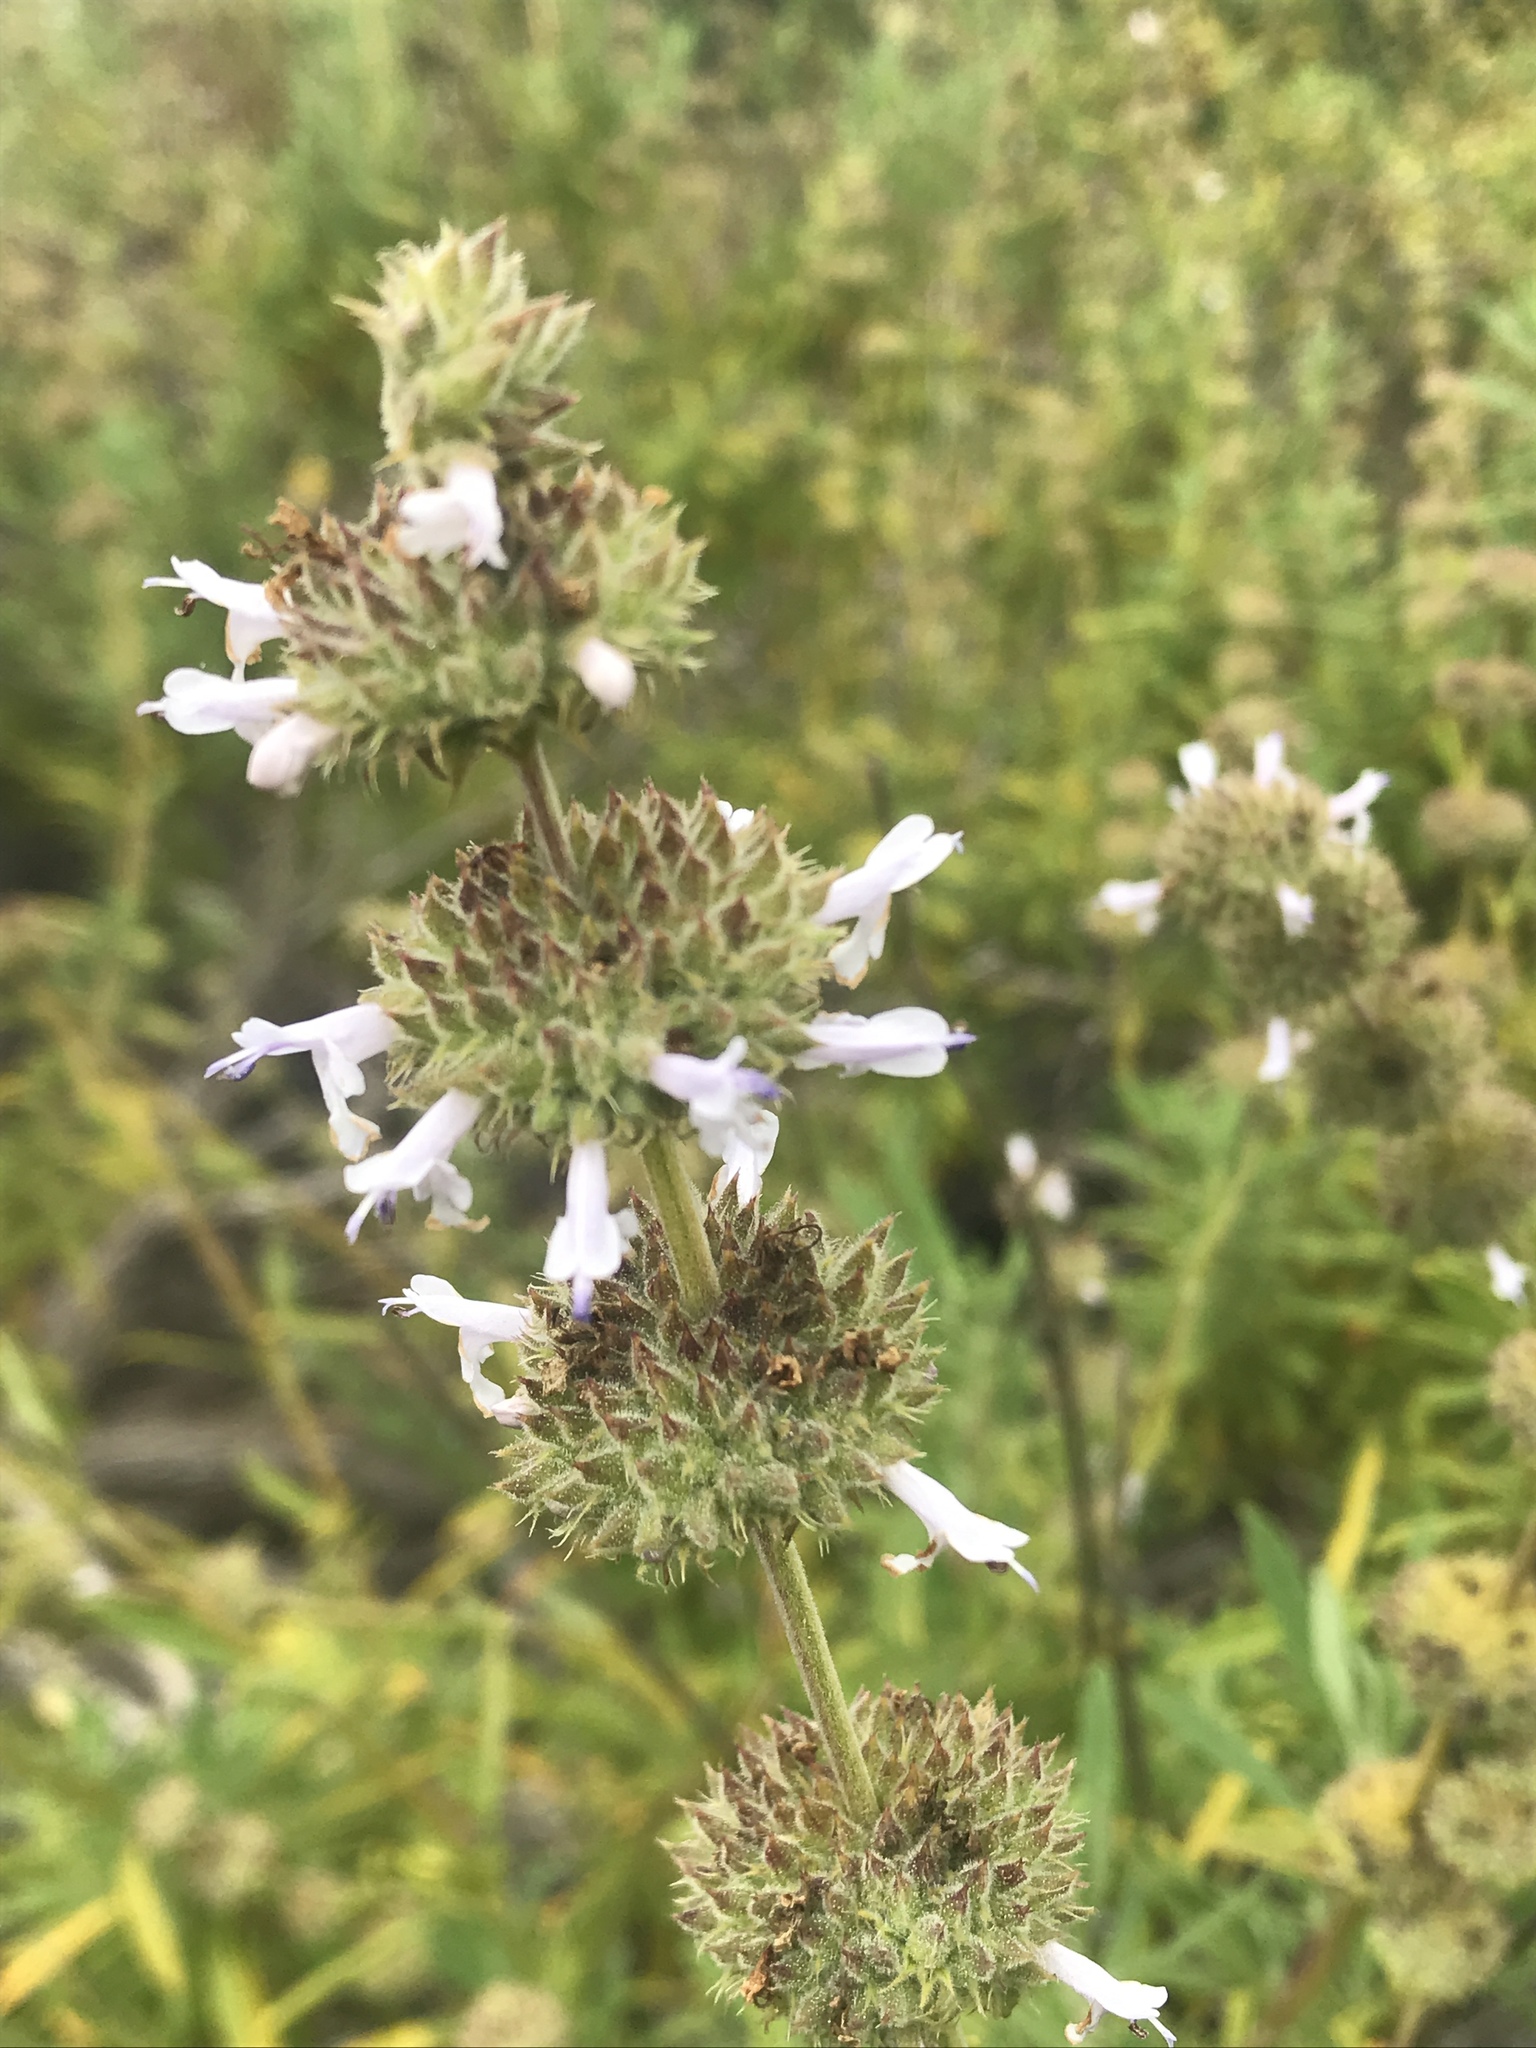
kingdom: Plantae
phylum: Tracheophyta
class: Magnoliopsida
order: Lamiales
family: Lamiaceae
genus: Salvia
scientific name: Salvia mellifera
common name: Black sage
